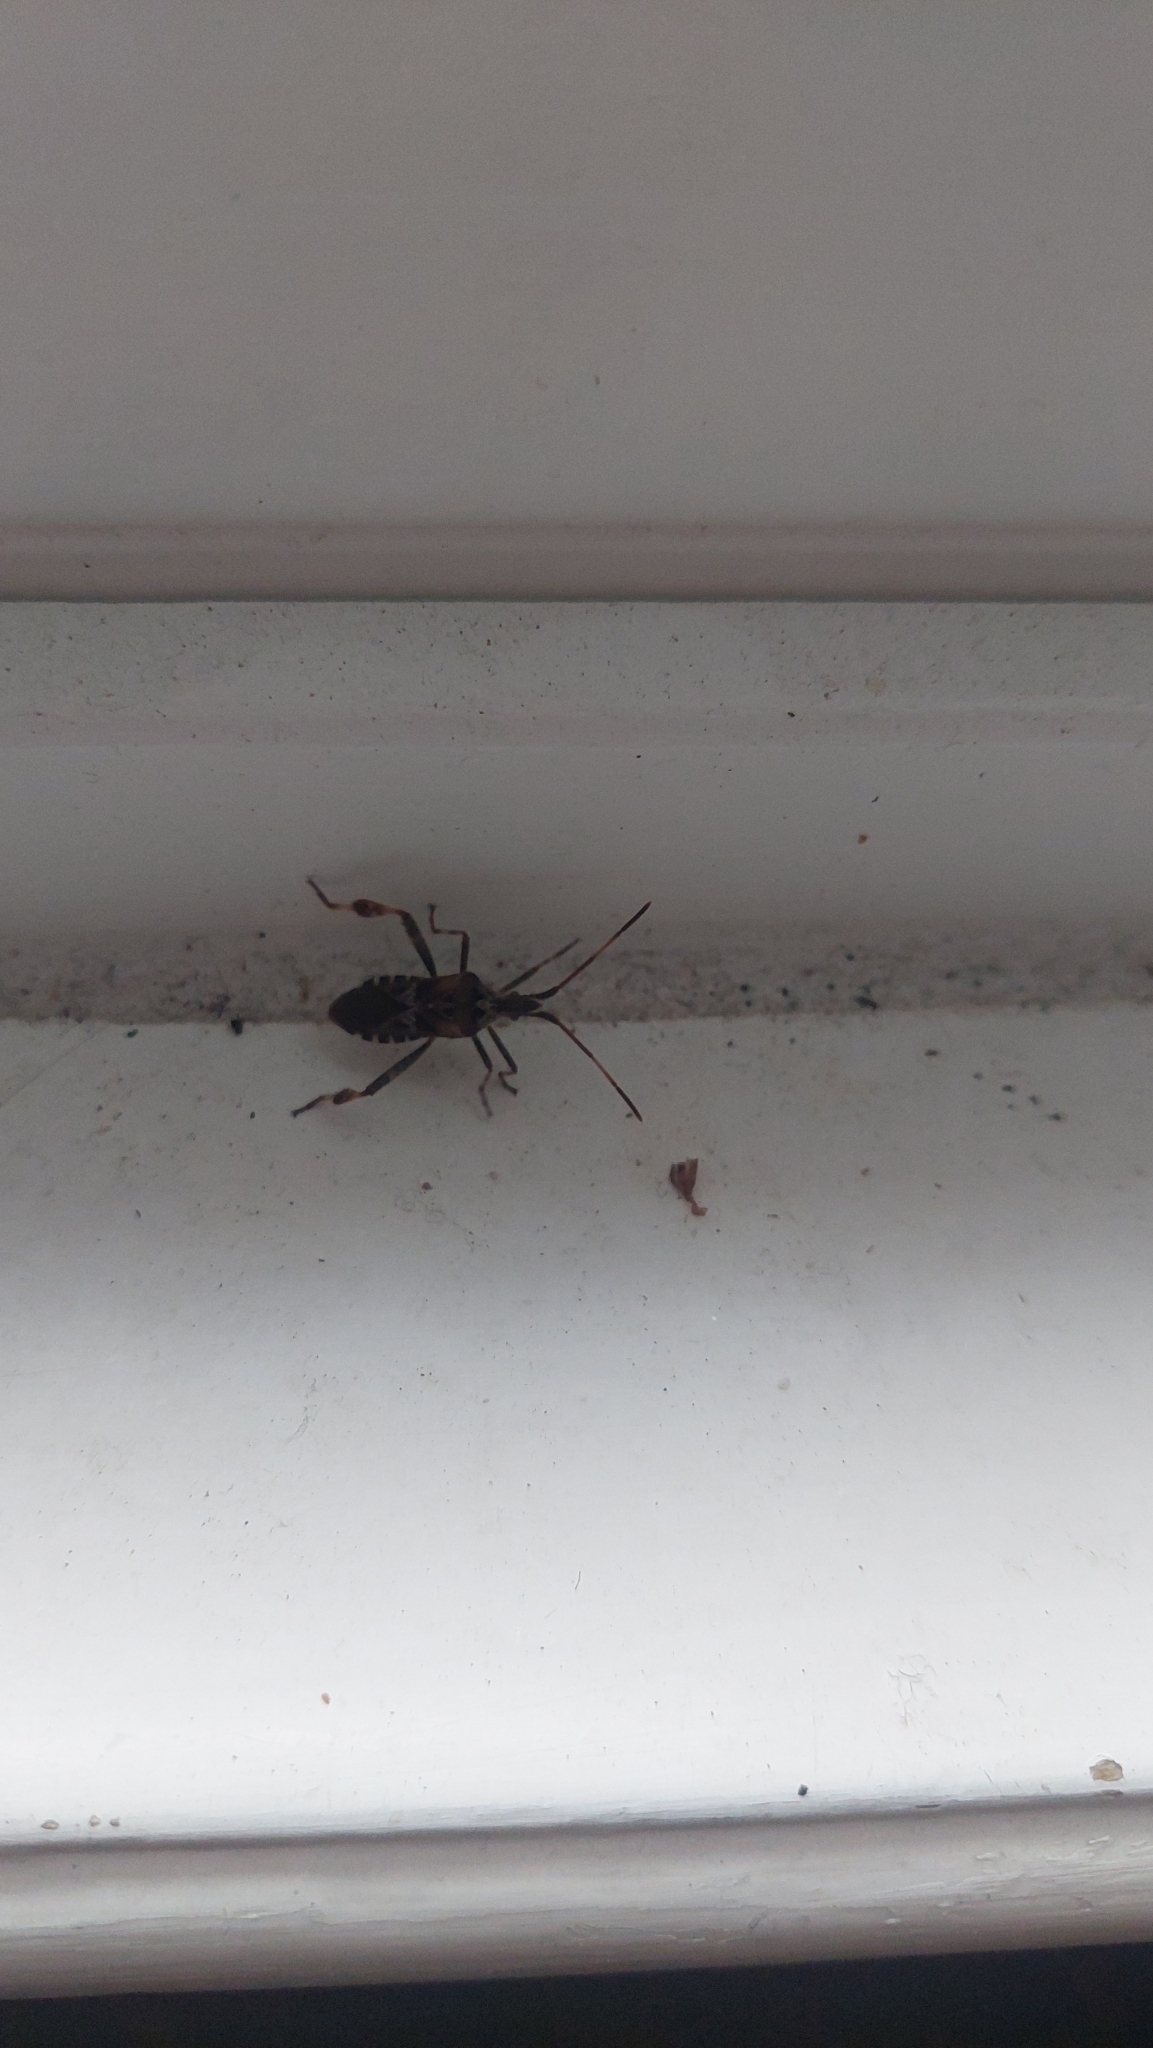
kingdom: Animalia
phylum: Arthropoda
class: Insecta
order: Hemiptera
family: Coreidae
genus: Leptoglossus
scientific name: Leptoglossus occidentalis
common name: Western conifer-seed bug
